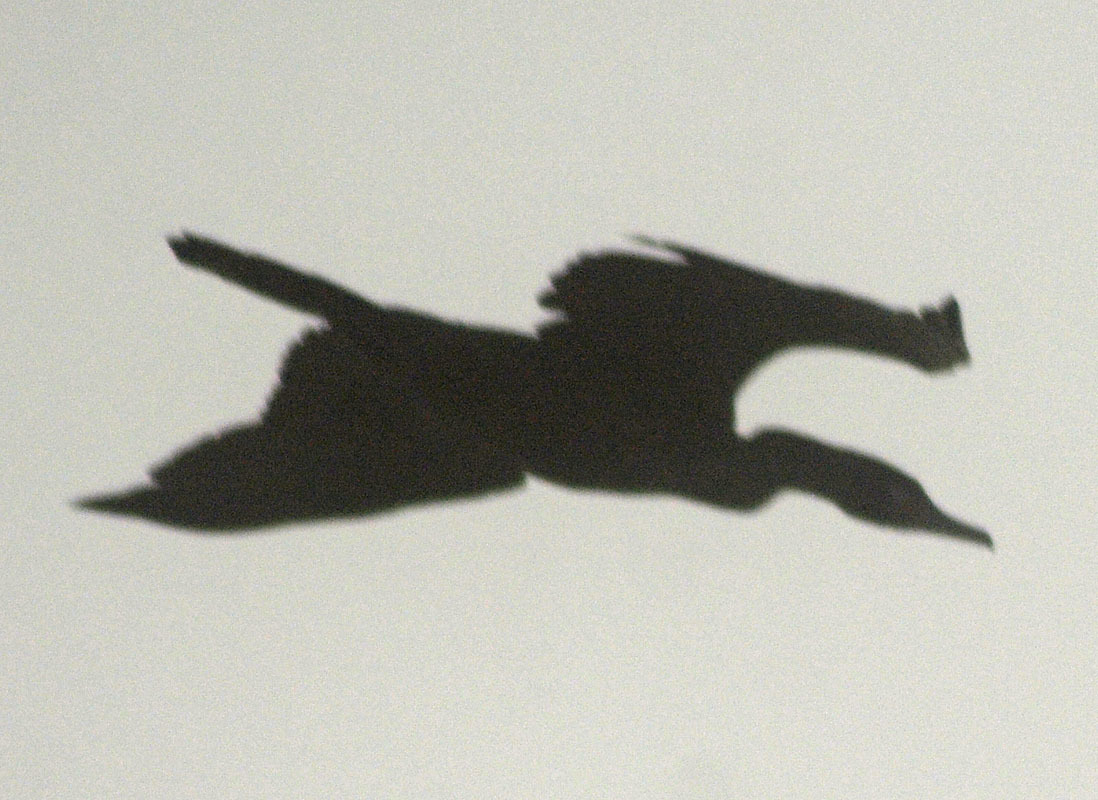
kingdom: Animalia
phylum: Chordata
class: Aves
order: Suliformes
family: Phalacrocoracidae
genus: Phalacrocorax
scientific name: Phalacrocorax brasilianus
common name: Neotropic cormorant
